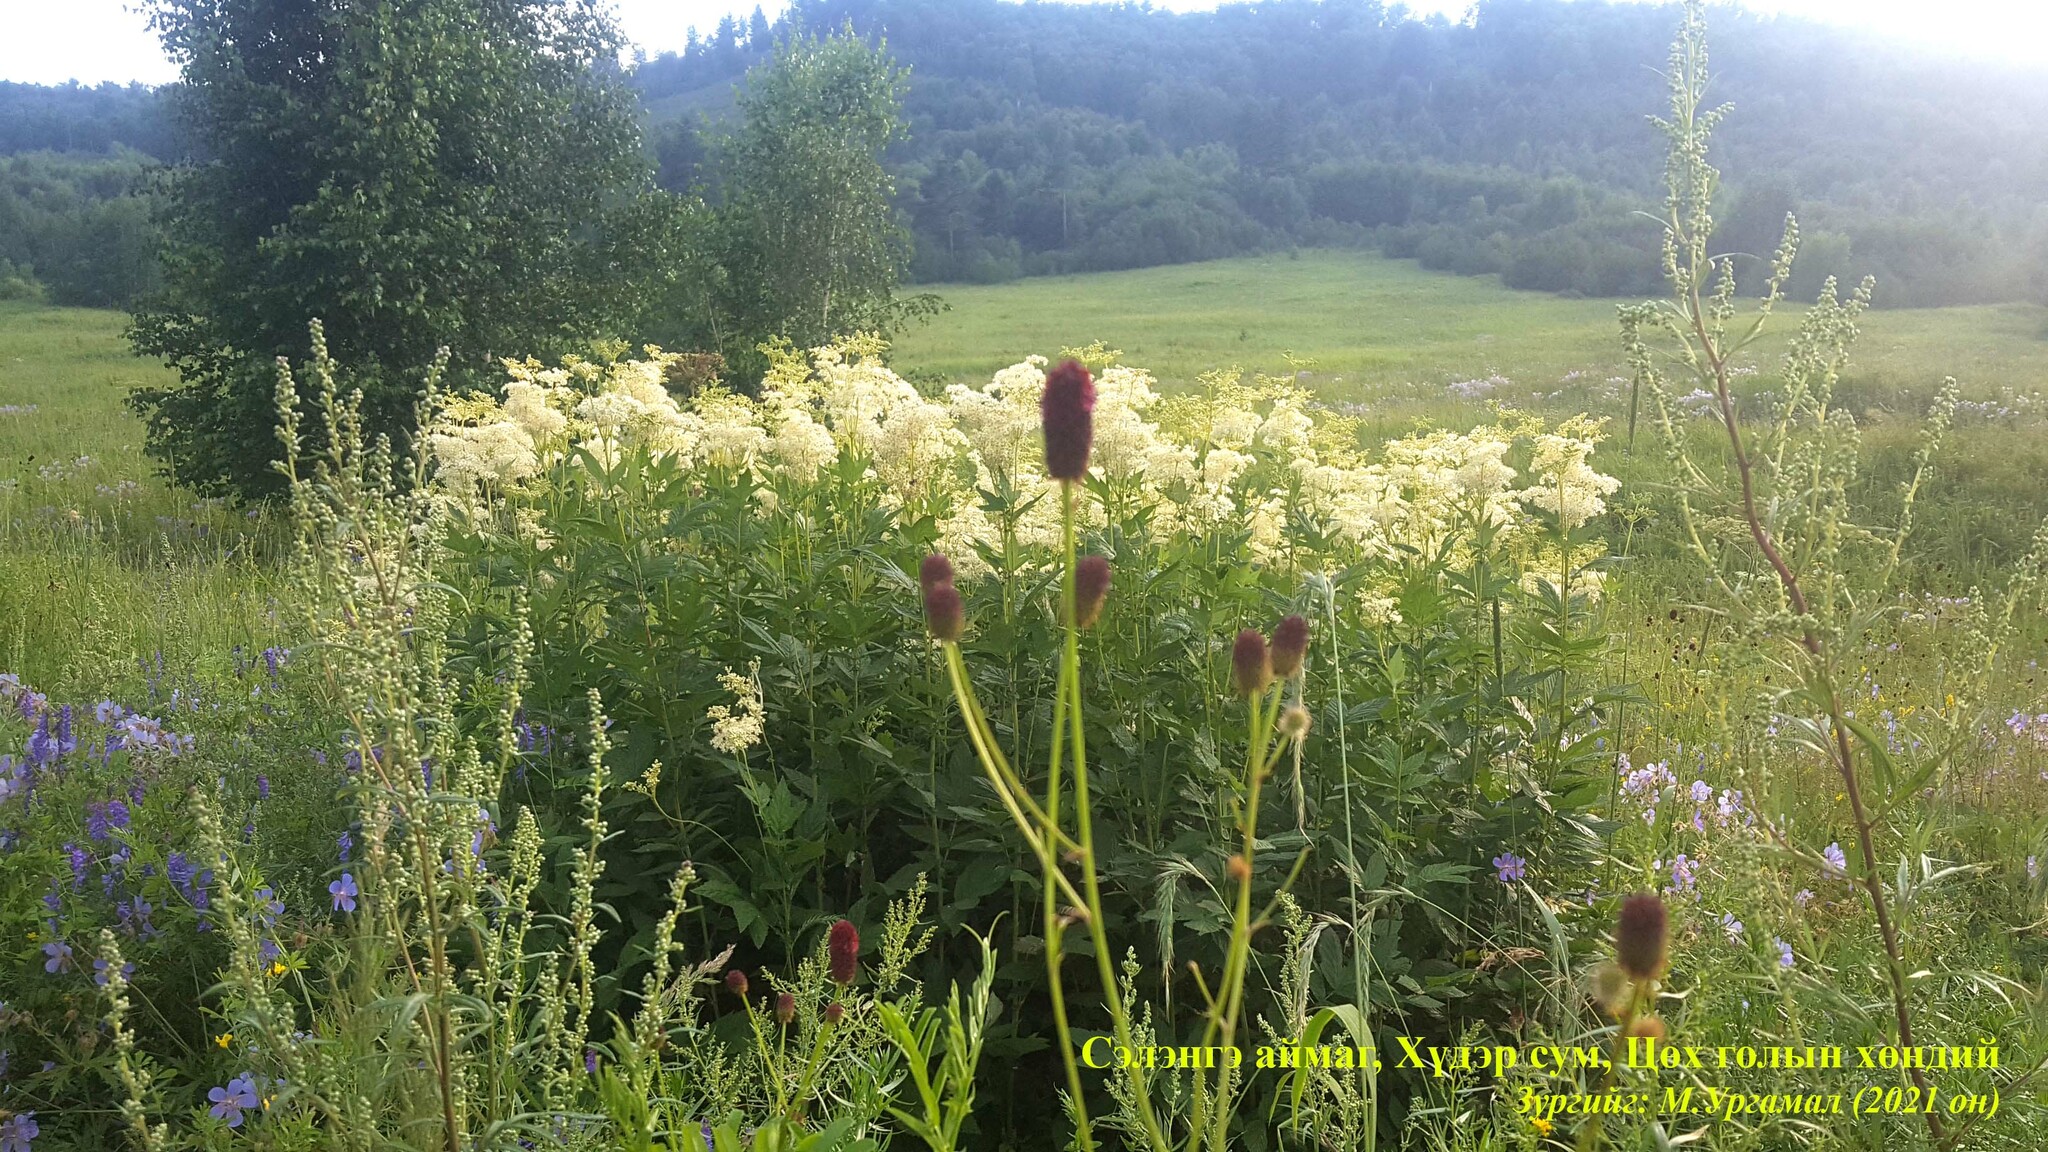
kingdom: Plantae
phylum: Tracheophyta
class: Magnoliopsida
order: Rosales
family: Rosaceae
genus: Sanguisorba
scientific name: Sanguisorba officinalis
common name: Great burnet
